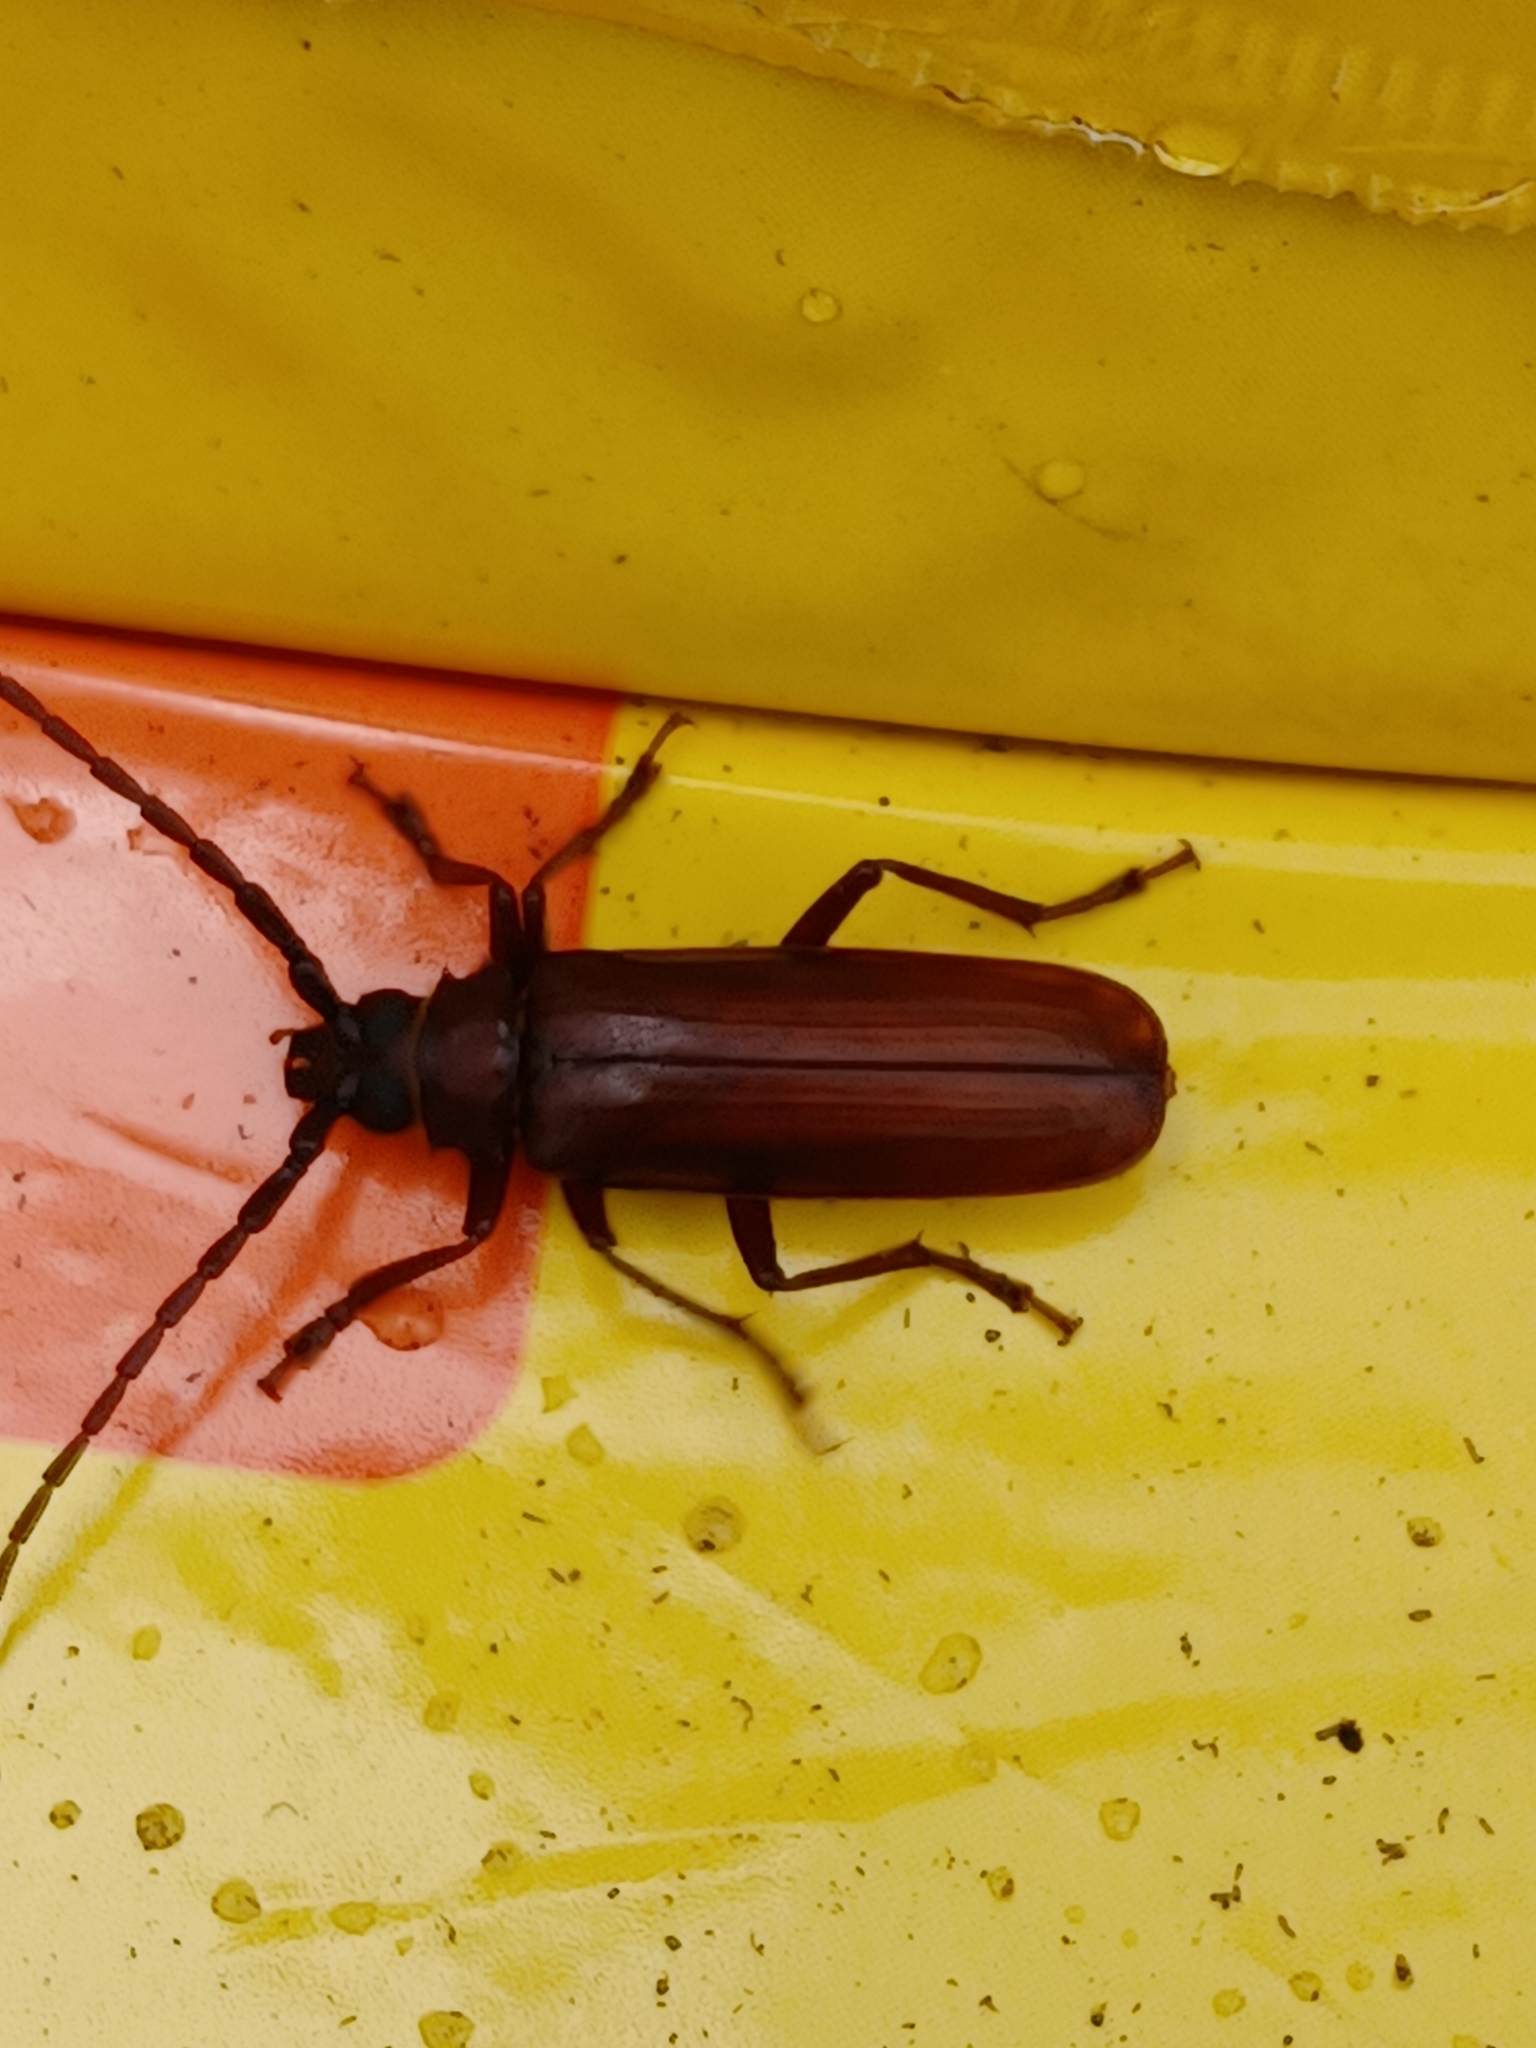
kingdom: Animalia
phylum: Arthropoda
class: Insecta
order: Coleoptera
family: Cerambycidae
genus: Orthosoma
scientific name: Orthosoma brunneum
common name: Brown prionid beetle
